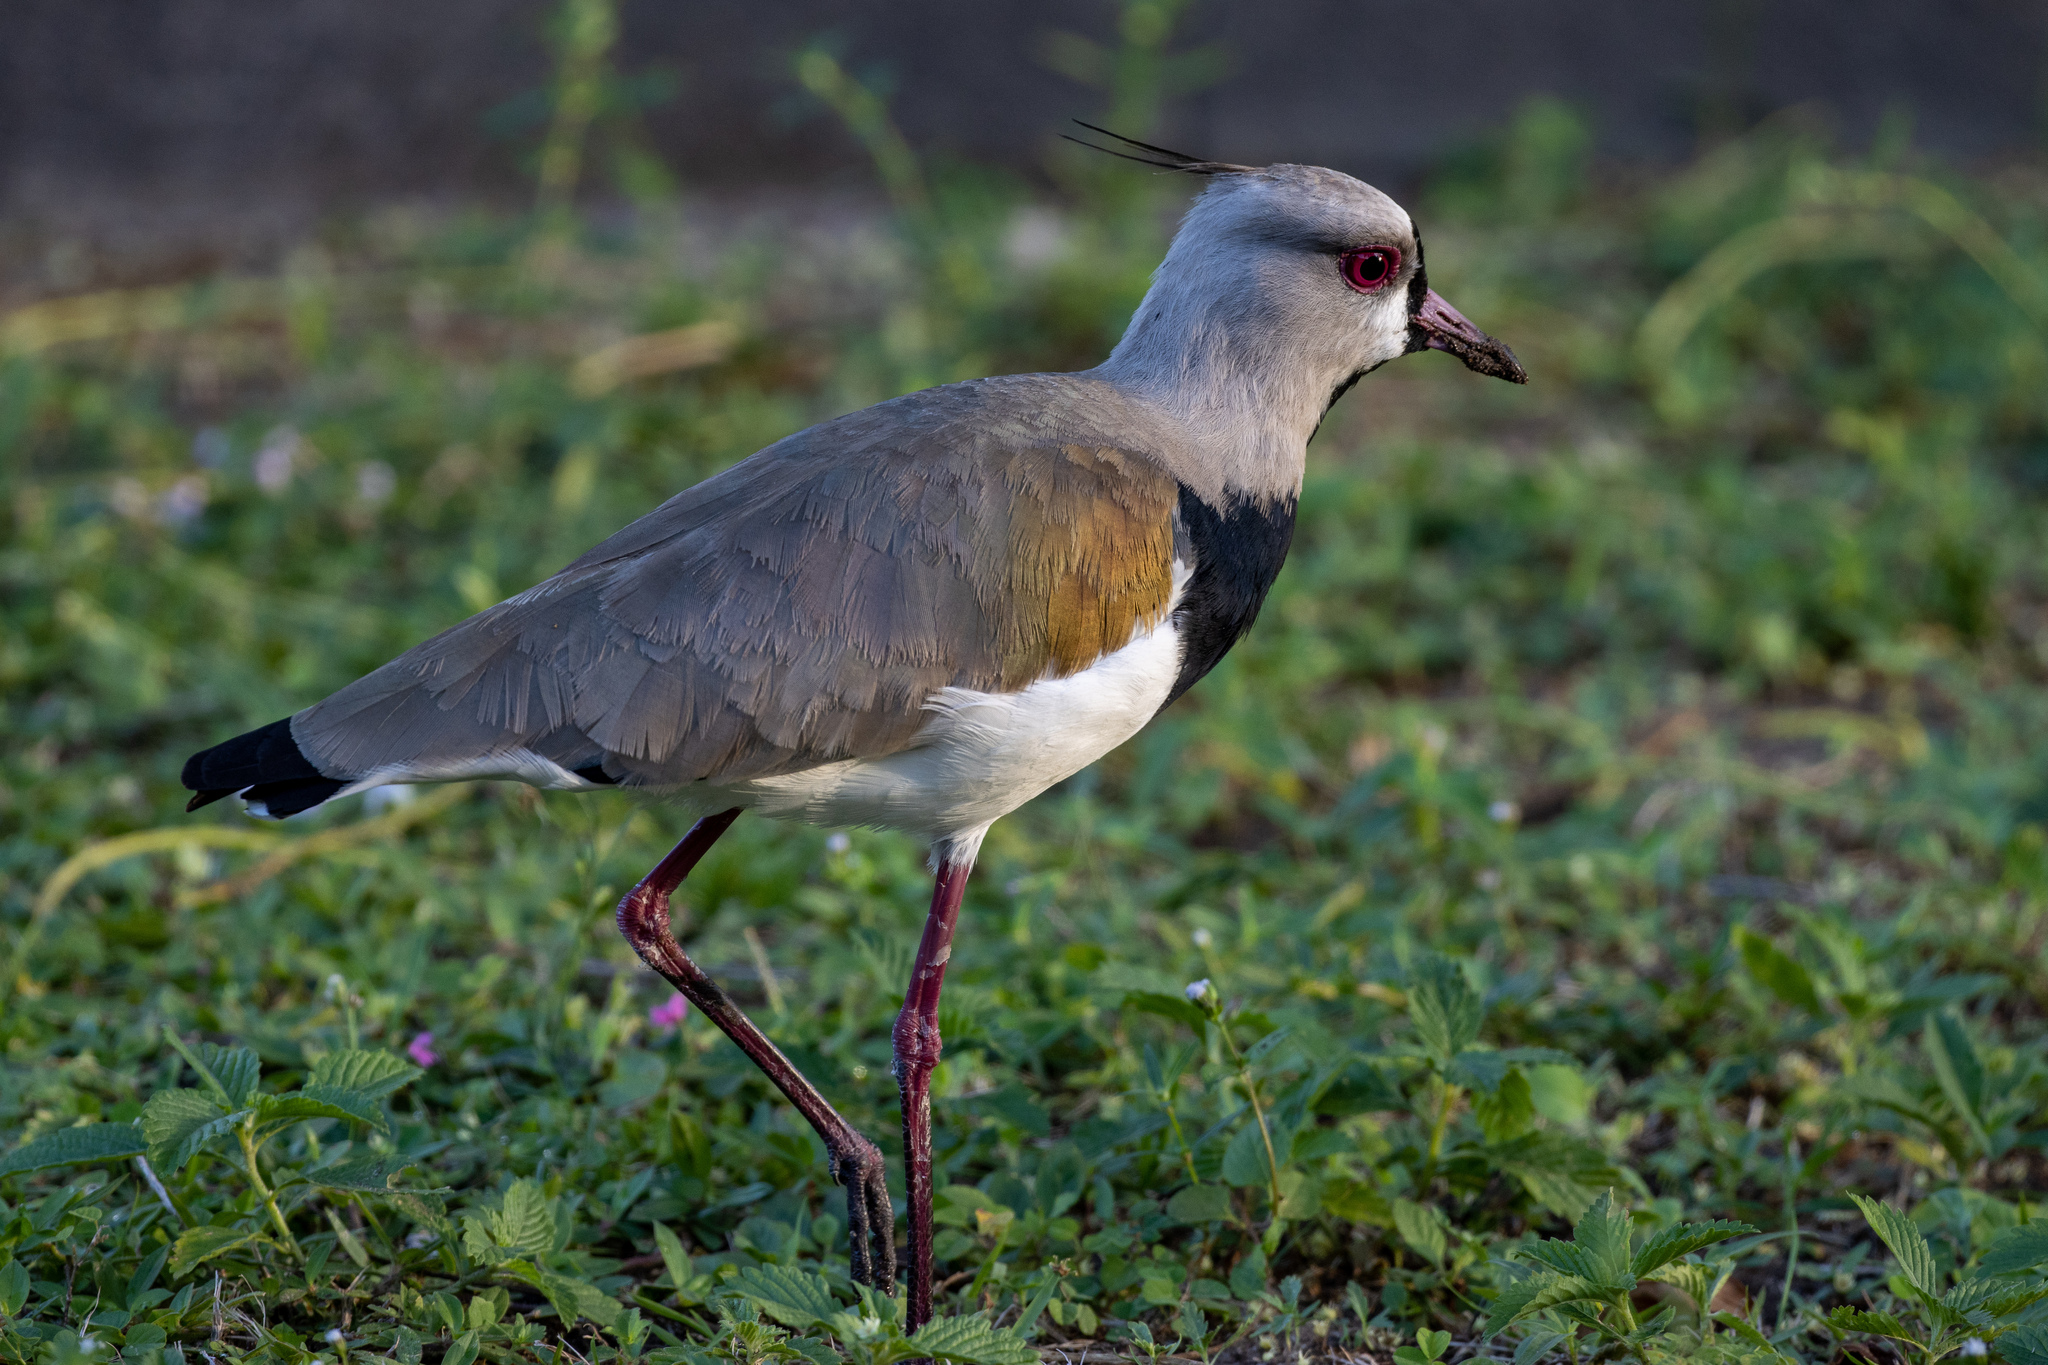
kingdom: Animalia
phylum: Chordata
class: Aves
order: Charadriiformes
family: Charadriidae
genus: Vanellus
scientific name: Vanellus chilensis
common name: Southern lapwing
